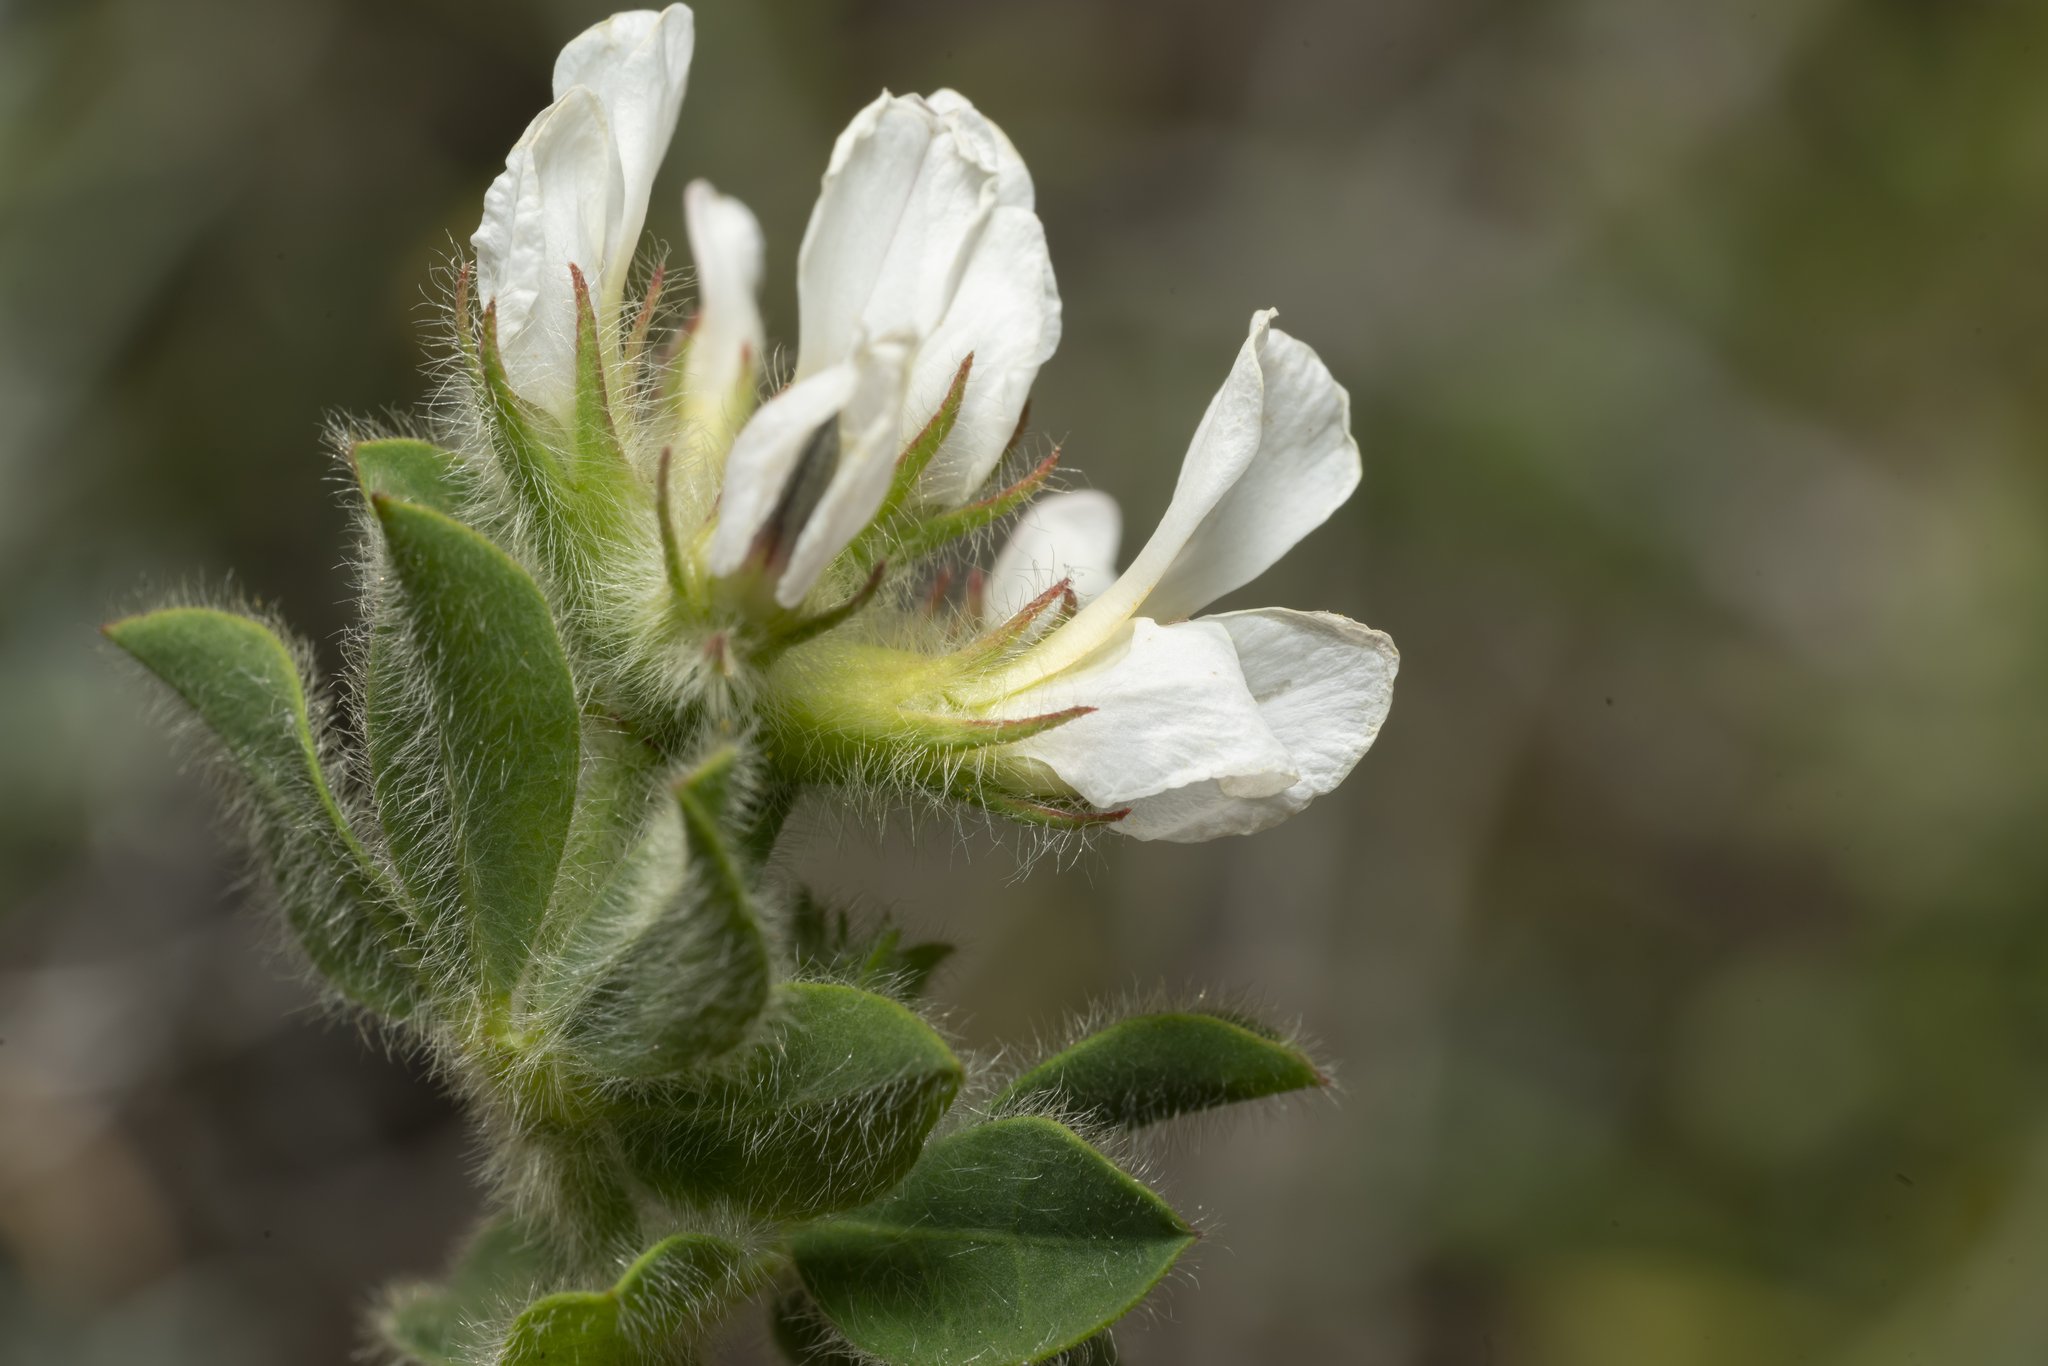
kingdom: Plantae
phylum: Tracheophyta
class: Magnoliopsida
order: Fabales
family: Fabaceae
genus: Lotus
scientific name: Lotus hirsutus
